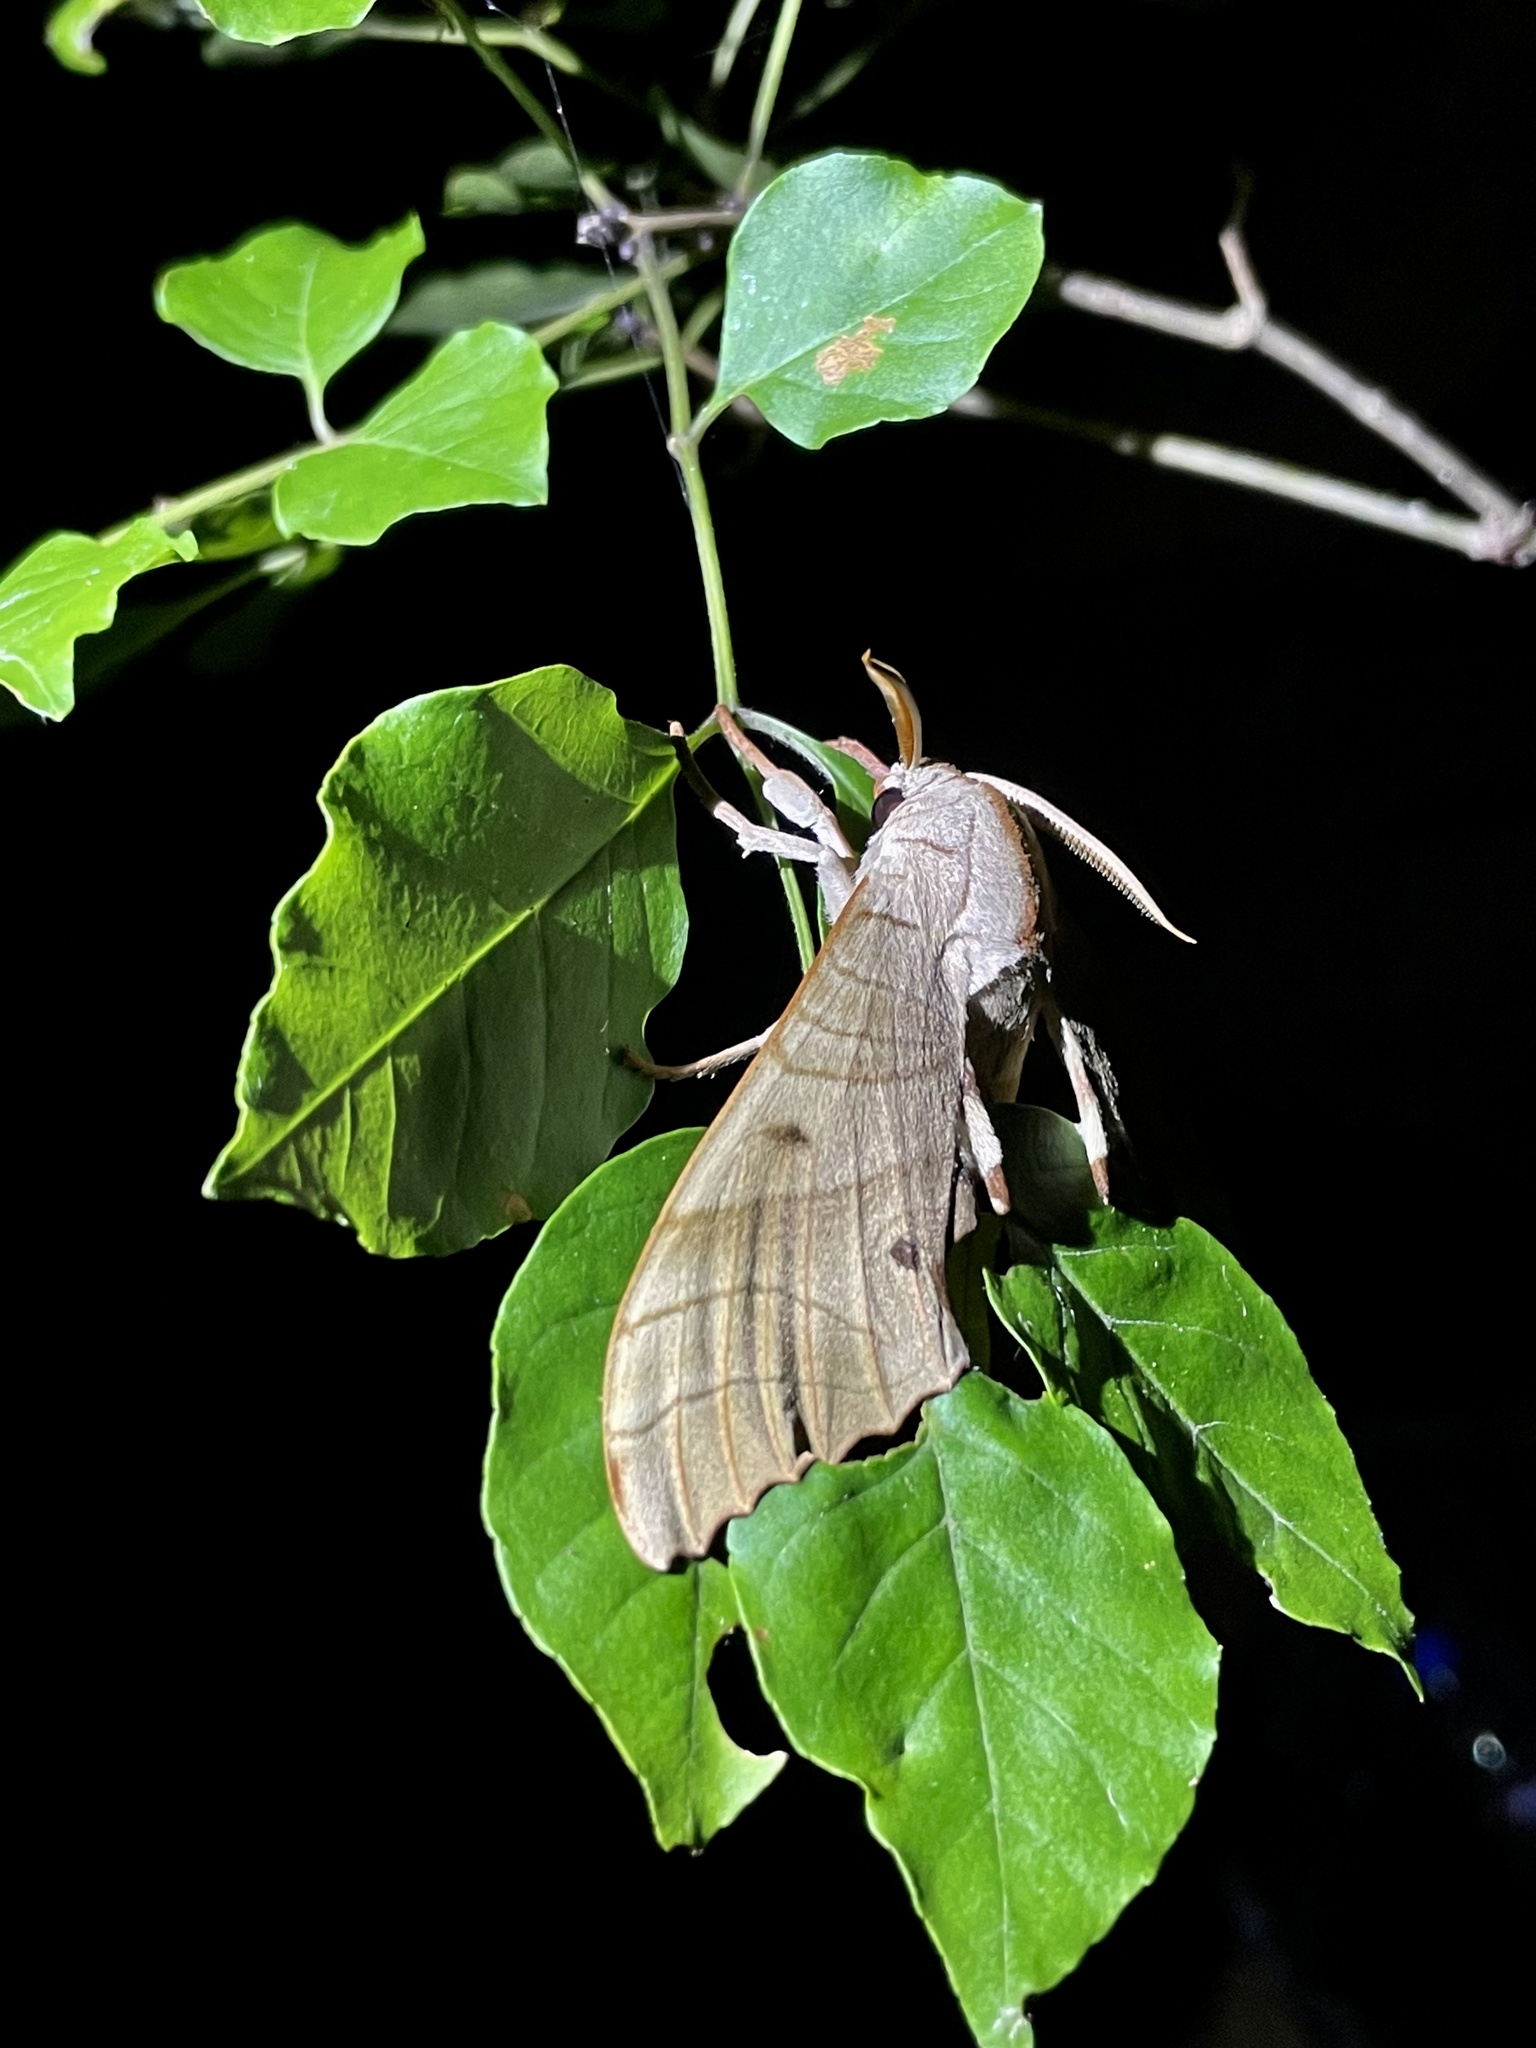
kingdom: Animalia
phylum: Arthropoda
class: Insecta
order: Lepidoptera
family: Sphingidae
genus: Marumba
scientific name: Marumba sperchius
